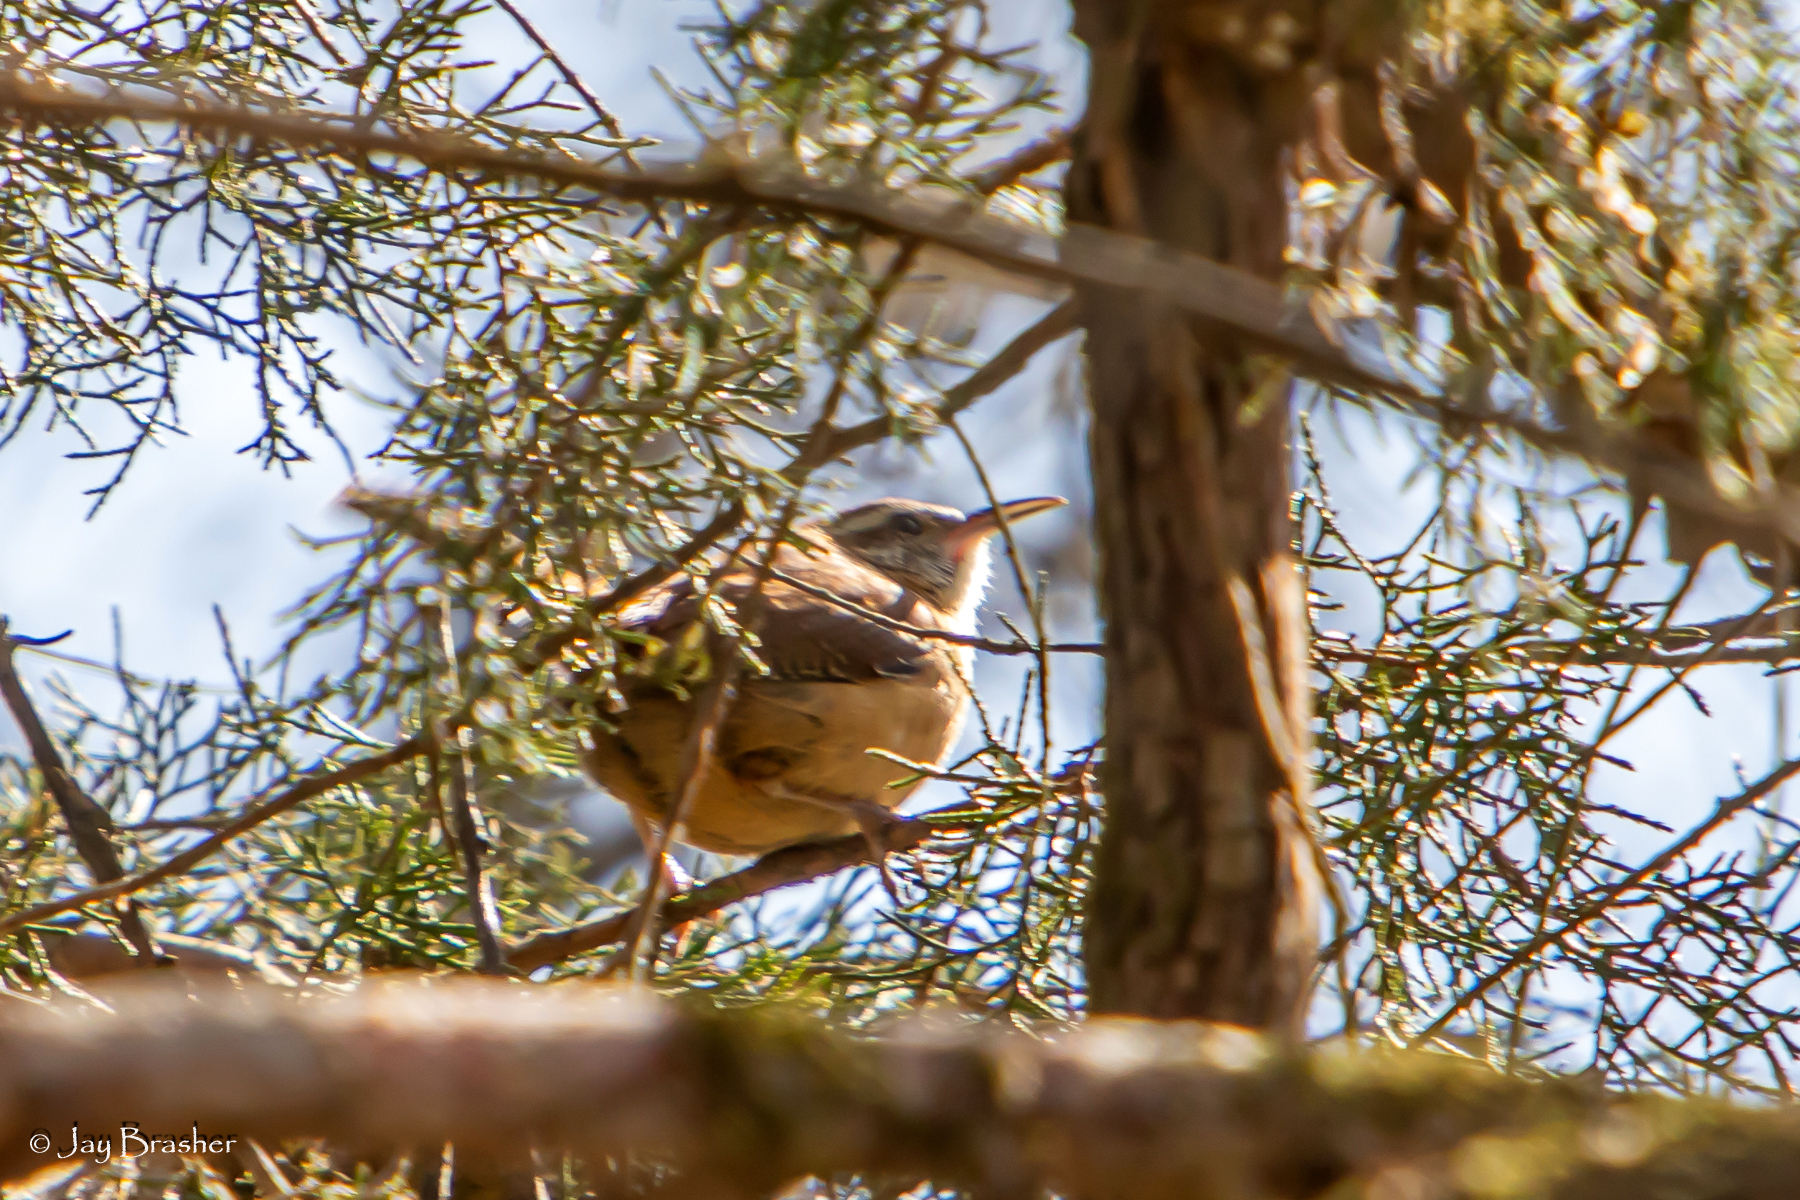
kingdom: Animalia
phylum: Chordata
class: Aves
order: Passeriformes
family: Troglodytidae
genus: Thryothorus
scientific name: Thryothorus ludovicianus
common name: Carolina wren
